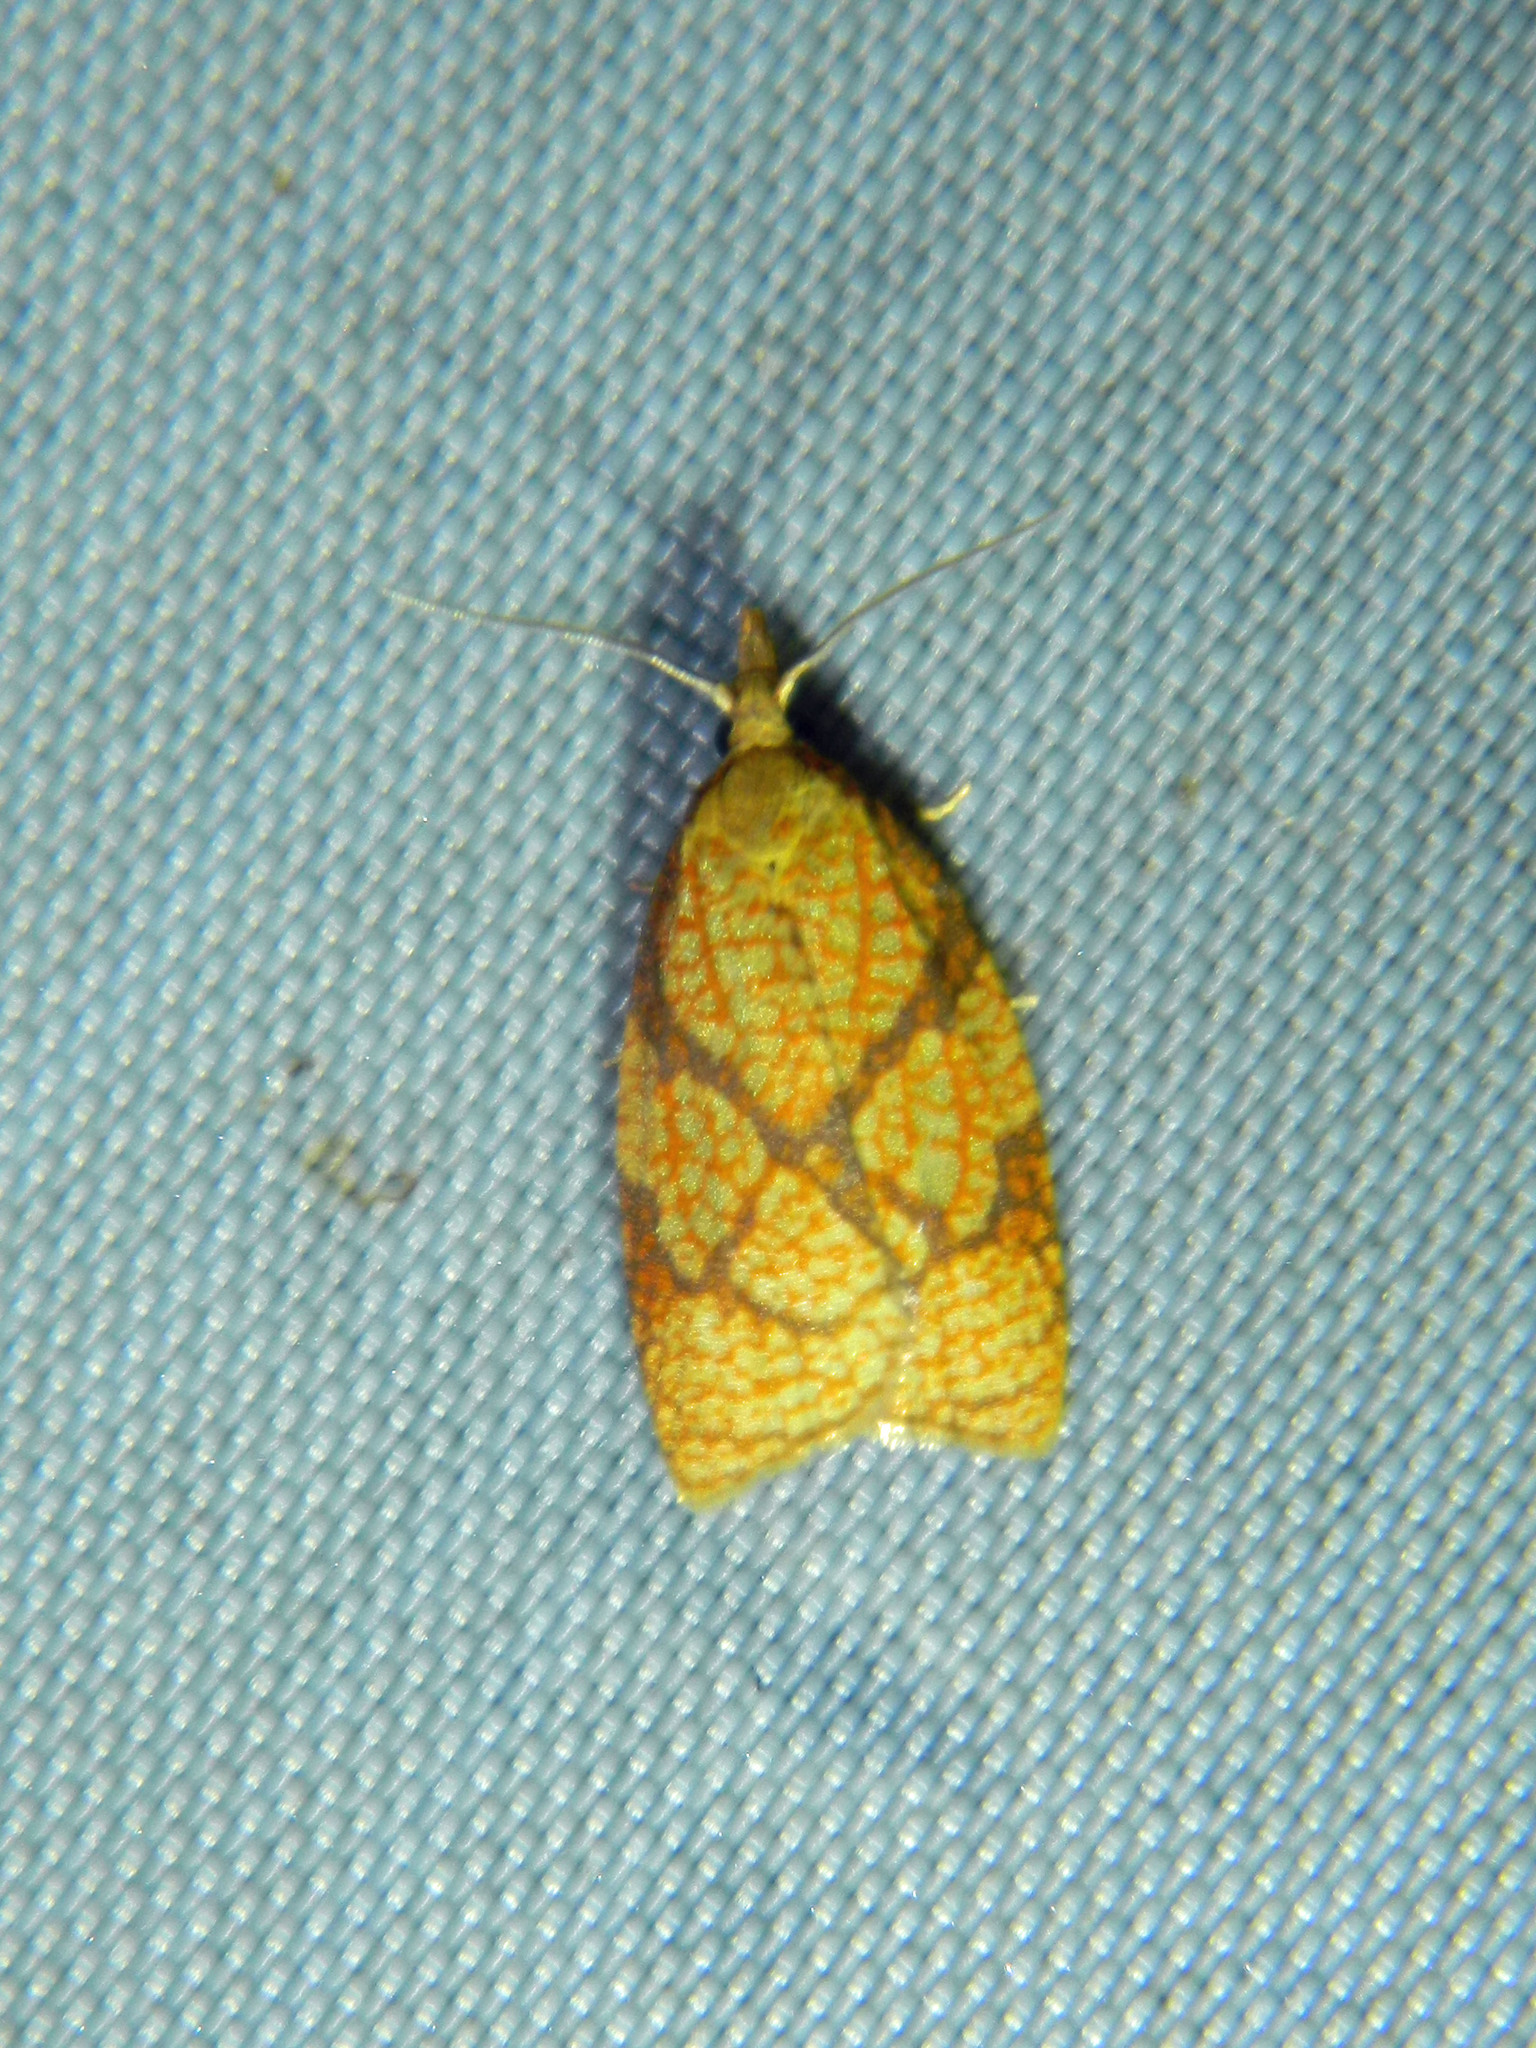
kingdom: Animalia
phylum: Arthropoda
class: Insecta
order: Lepidoptera
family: Tortricidae
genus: Cenopis
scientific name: Cenopis reticulatana
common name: Reticulated fruitworm moth
